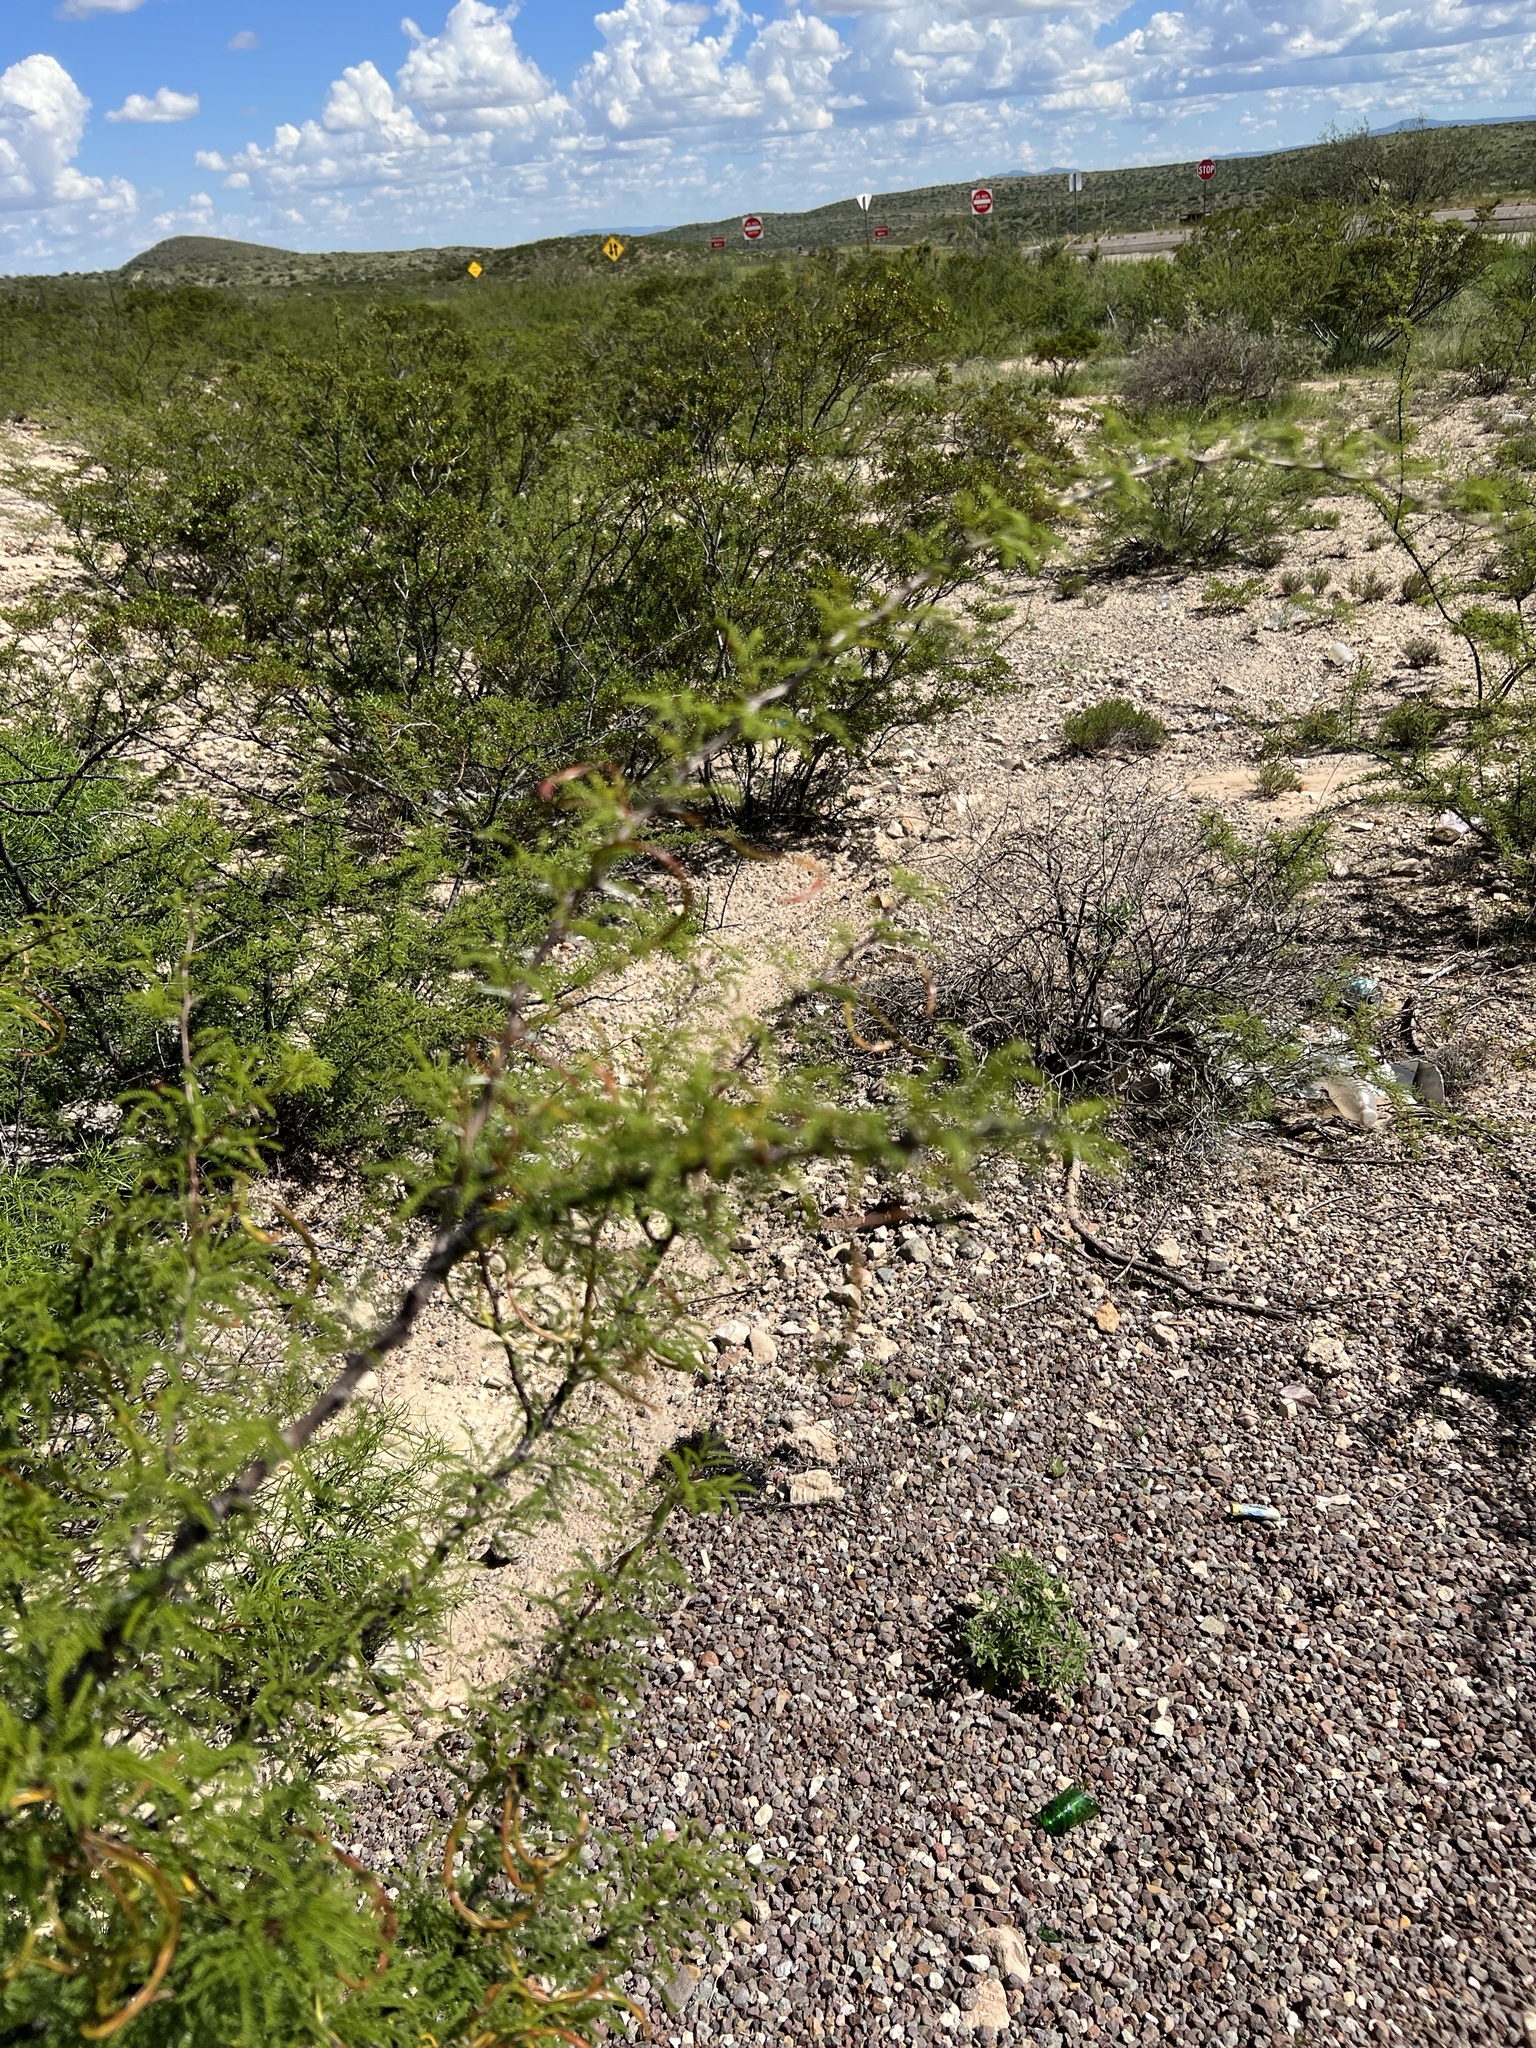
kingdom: Plantae
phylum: Tracheophyta
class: Magnoliopsida
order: Fabales
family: Fabaceae
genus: Vachellia
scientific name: Vachellia vernicosa
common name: Viscid acacia
